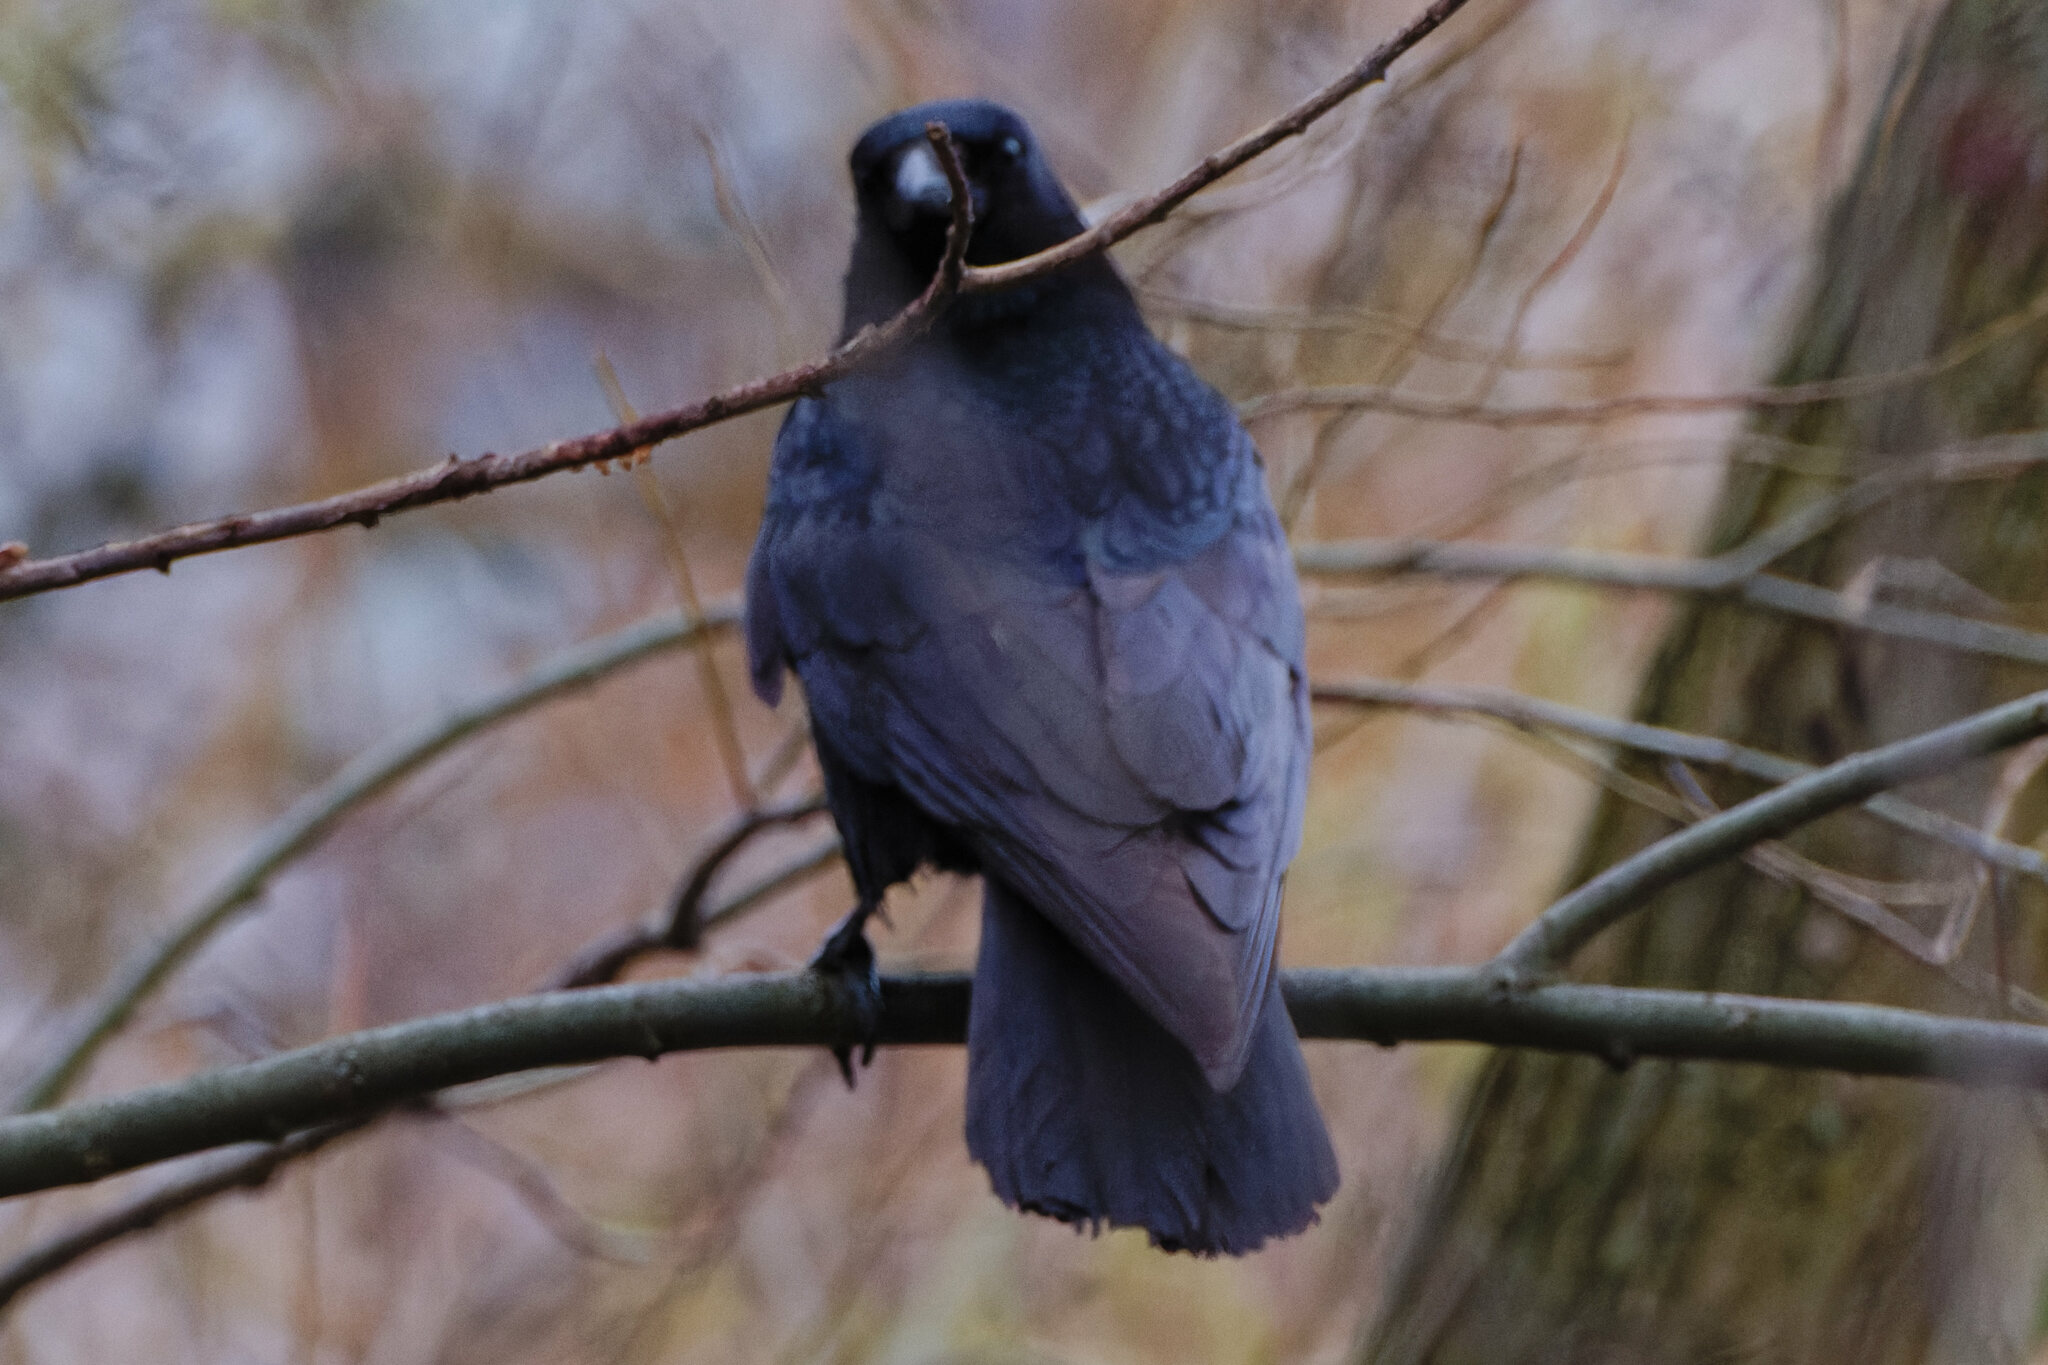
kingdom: Animalia
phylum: Chordata
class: Aves
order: Passeriformes
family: Corvidae
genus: Corvus
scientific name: Corvus corone
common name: Carrion crow
